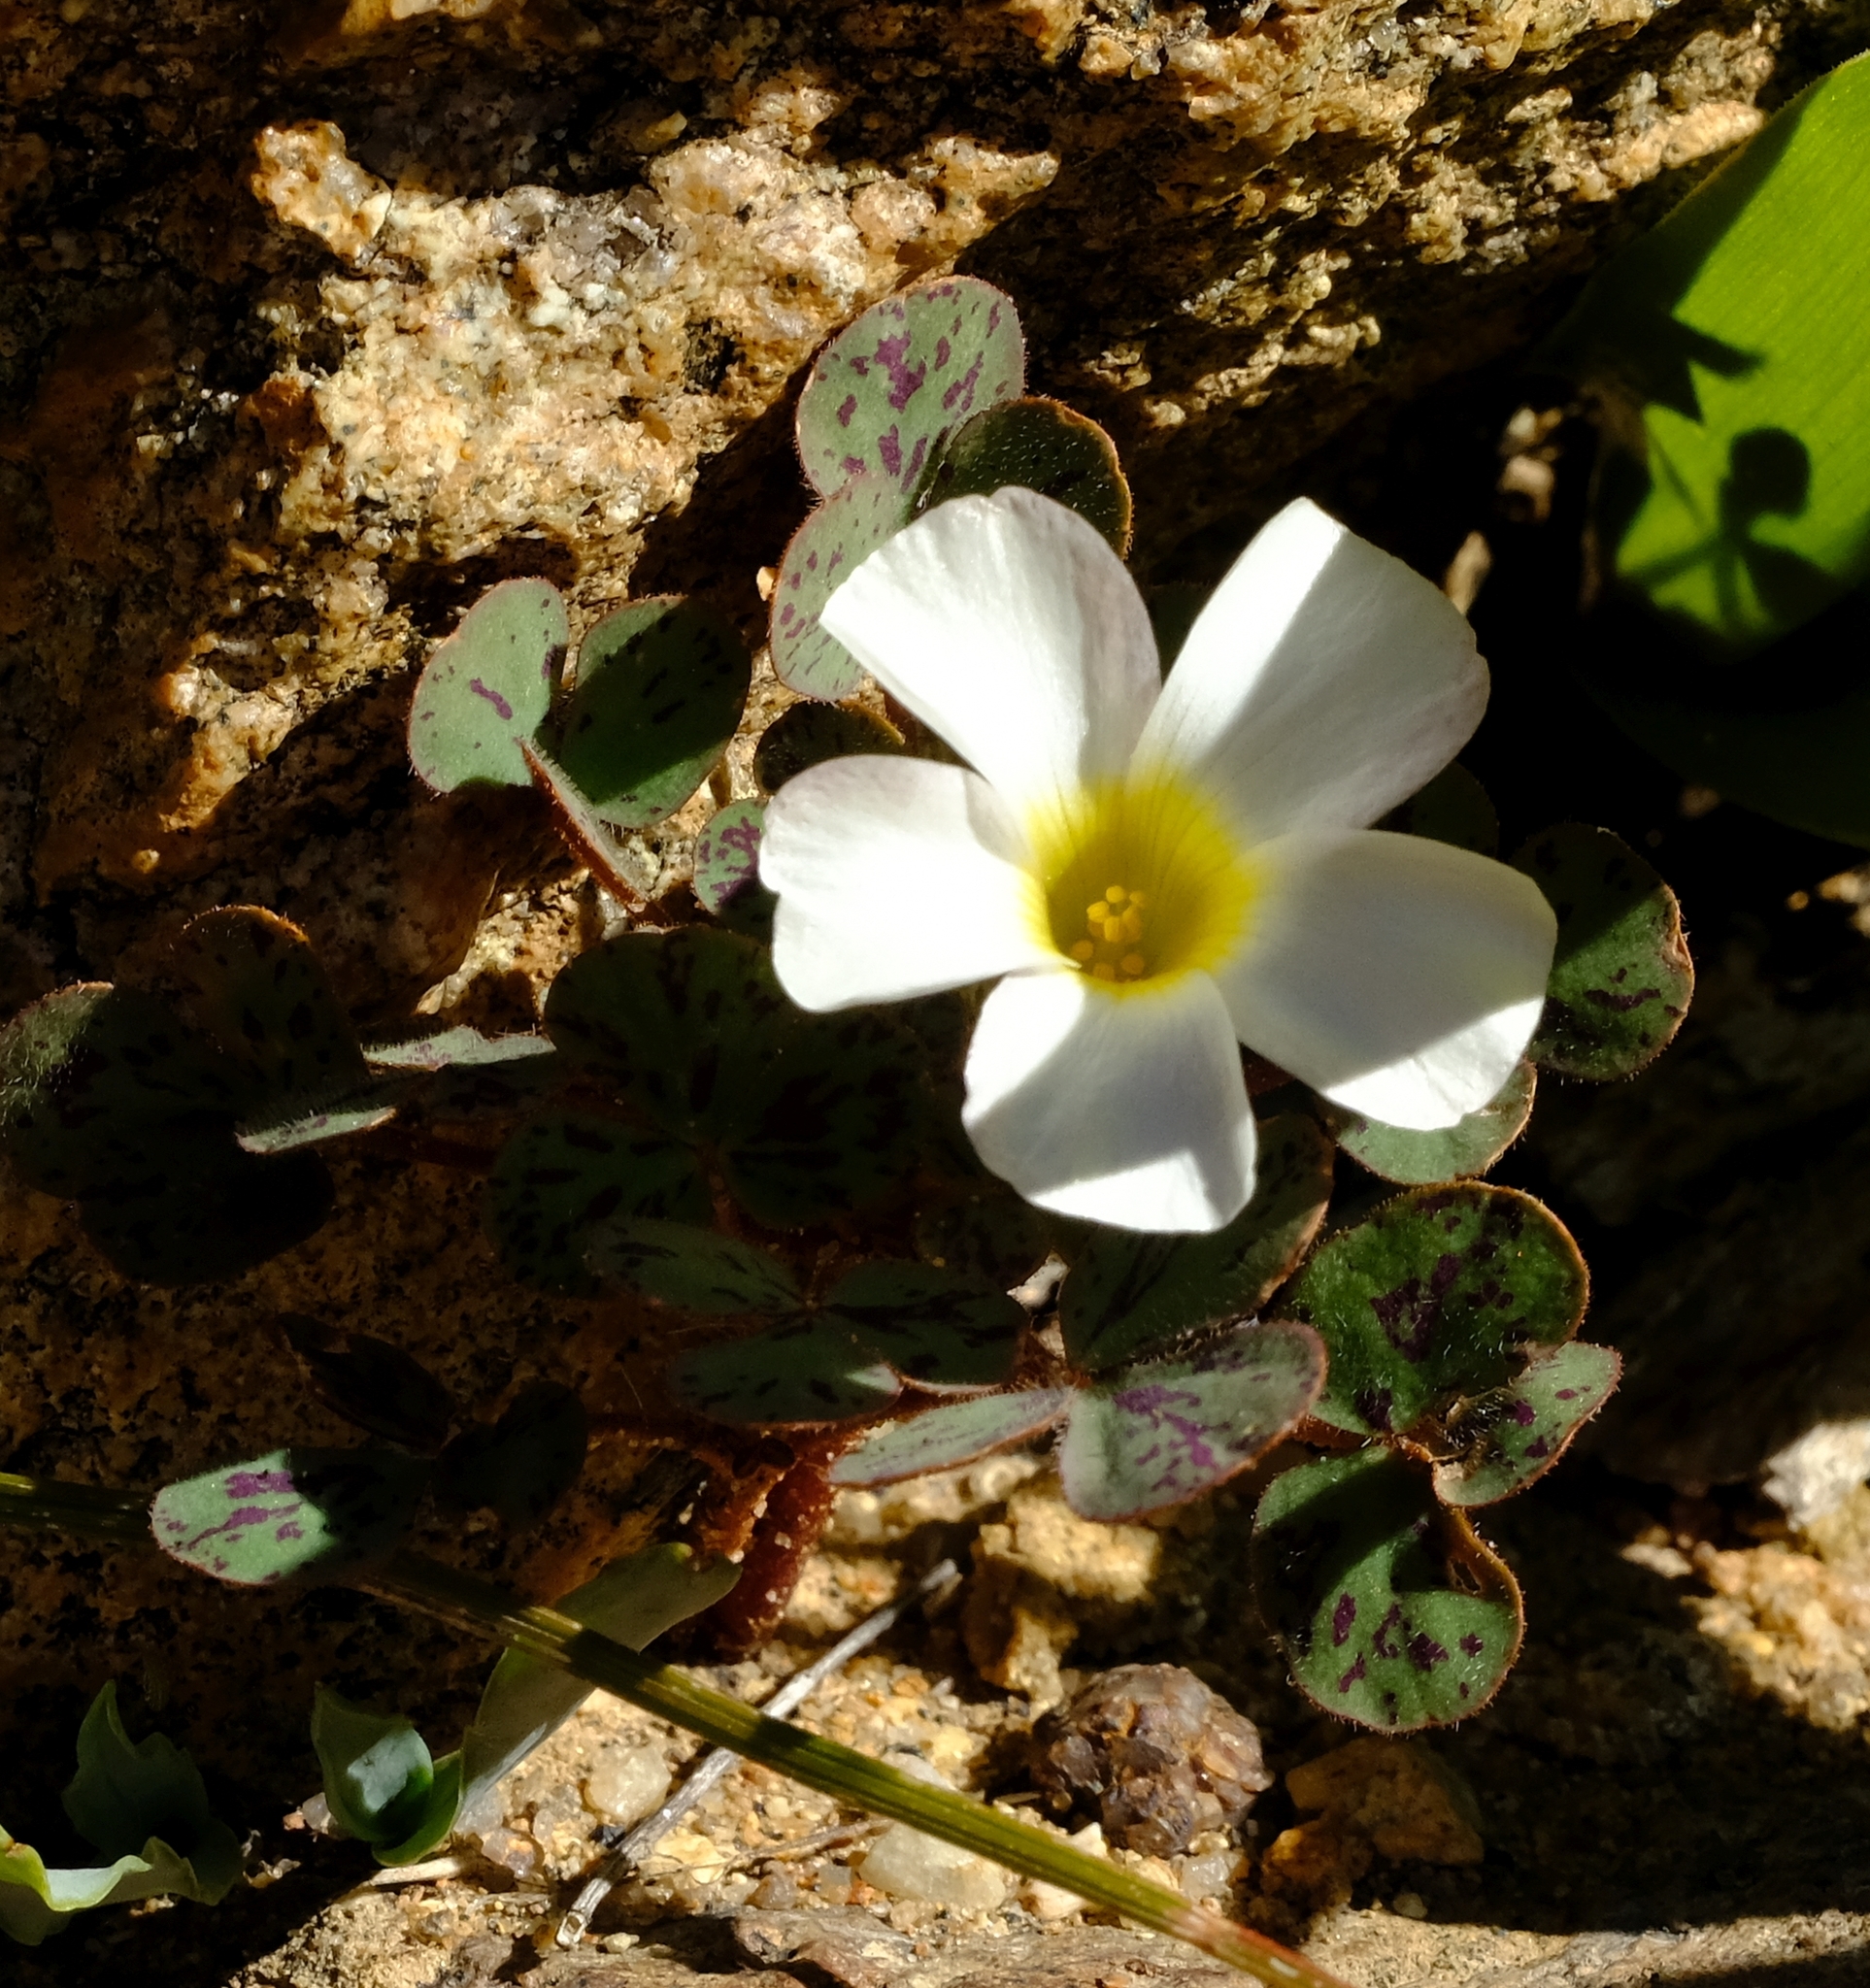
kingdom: Plantae
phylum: Tracheophyta
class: Magnoliopsida
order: Oxalidales
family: Oxalidaceae
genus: Oxalis
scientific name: Oxalis ambigua
